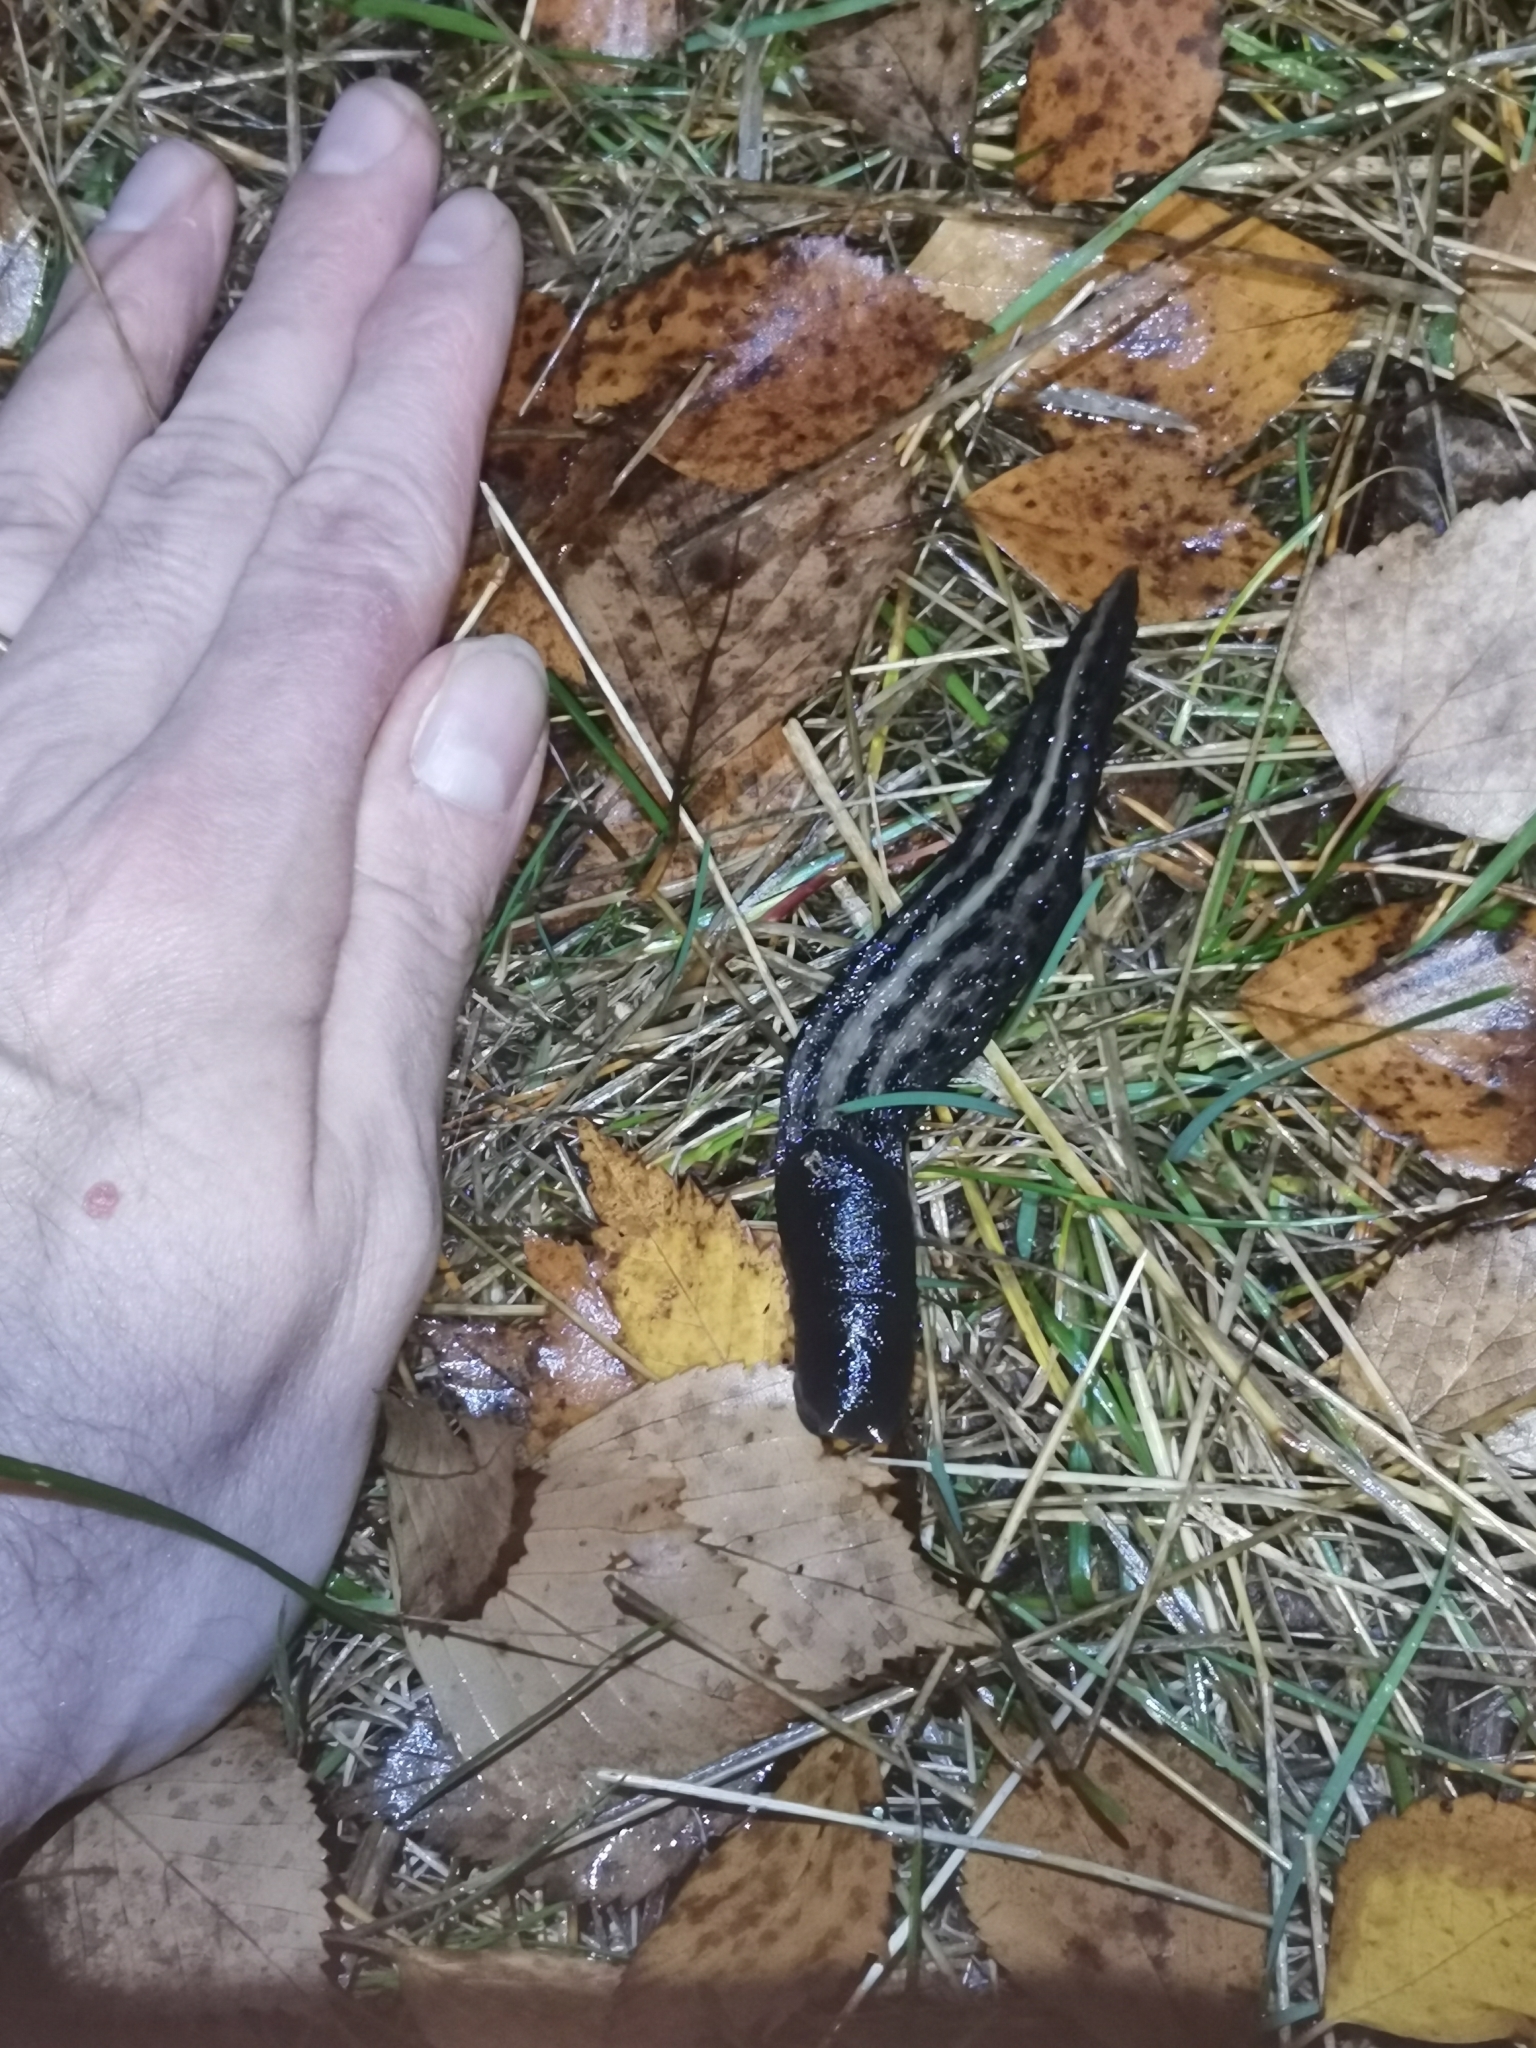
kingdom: Animalia
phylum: Mollusca
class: Gastropoda
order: Stylommatophora
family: Limacidae
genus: Limax
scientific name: Limax cinereoniger
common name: Ash-black slug
